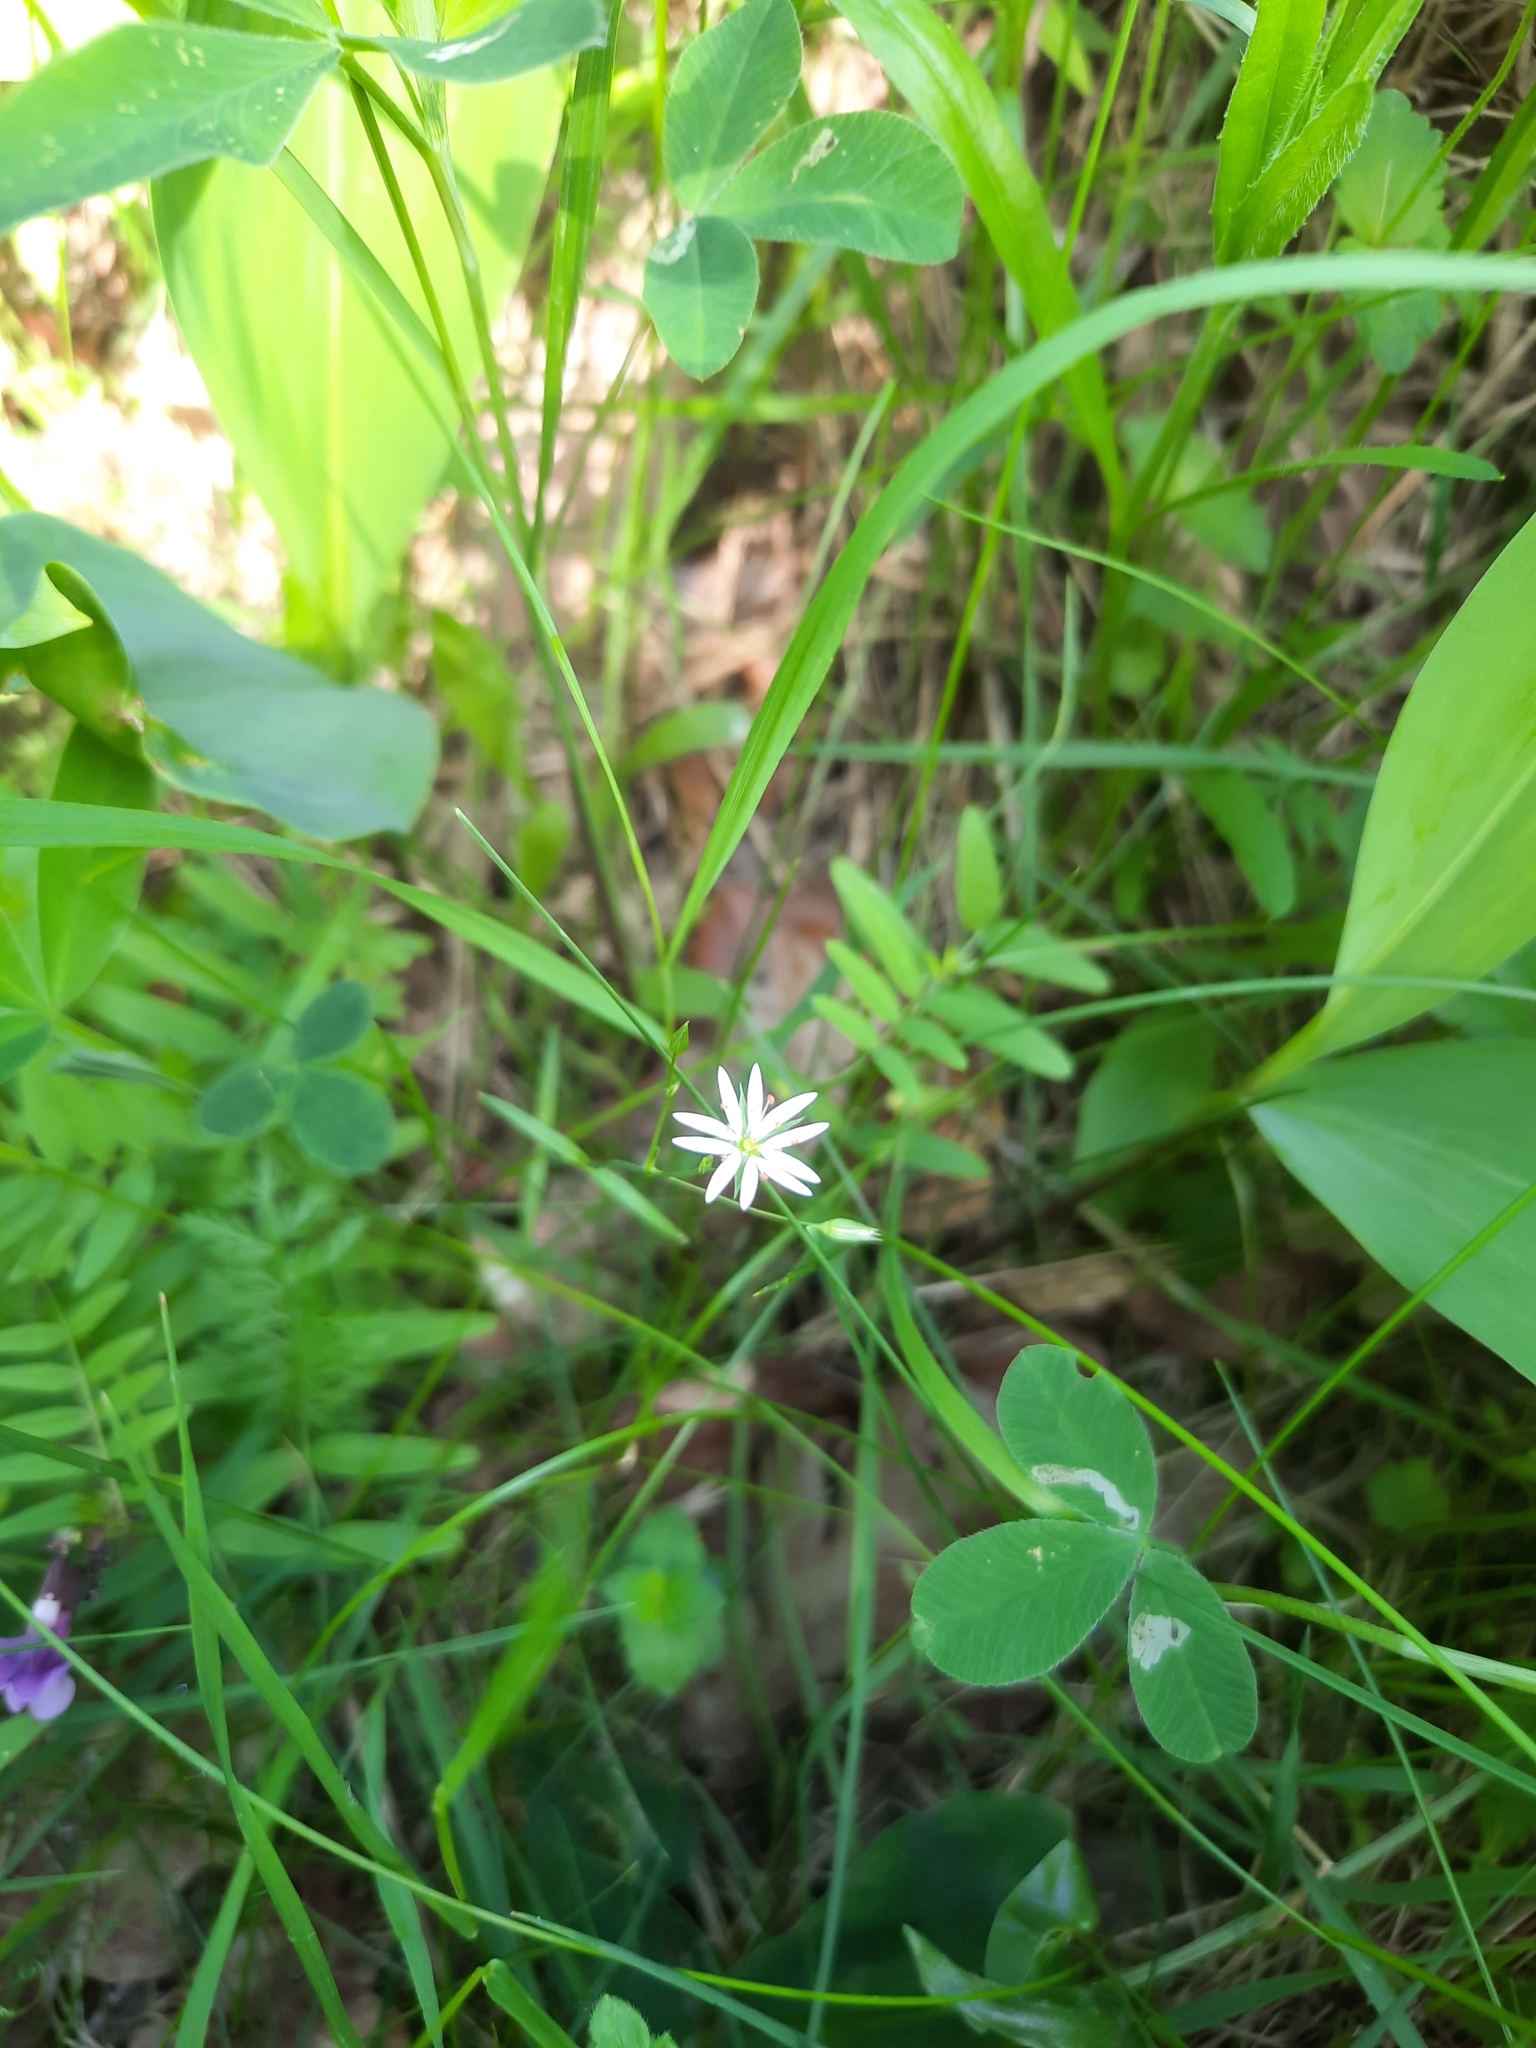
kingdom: Plantae
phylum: Tracheophyta
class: Magnoliopsida
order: Caryophyllales
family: Caryophyllaceae
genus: Stellaria
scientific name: Stellaria graminea
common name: Grass-like starwort
